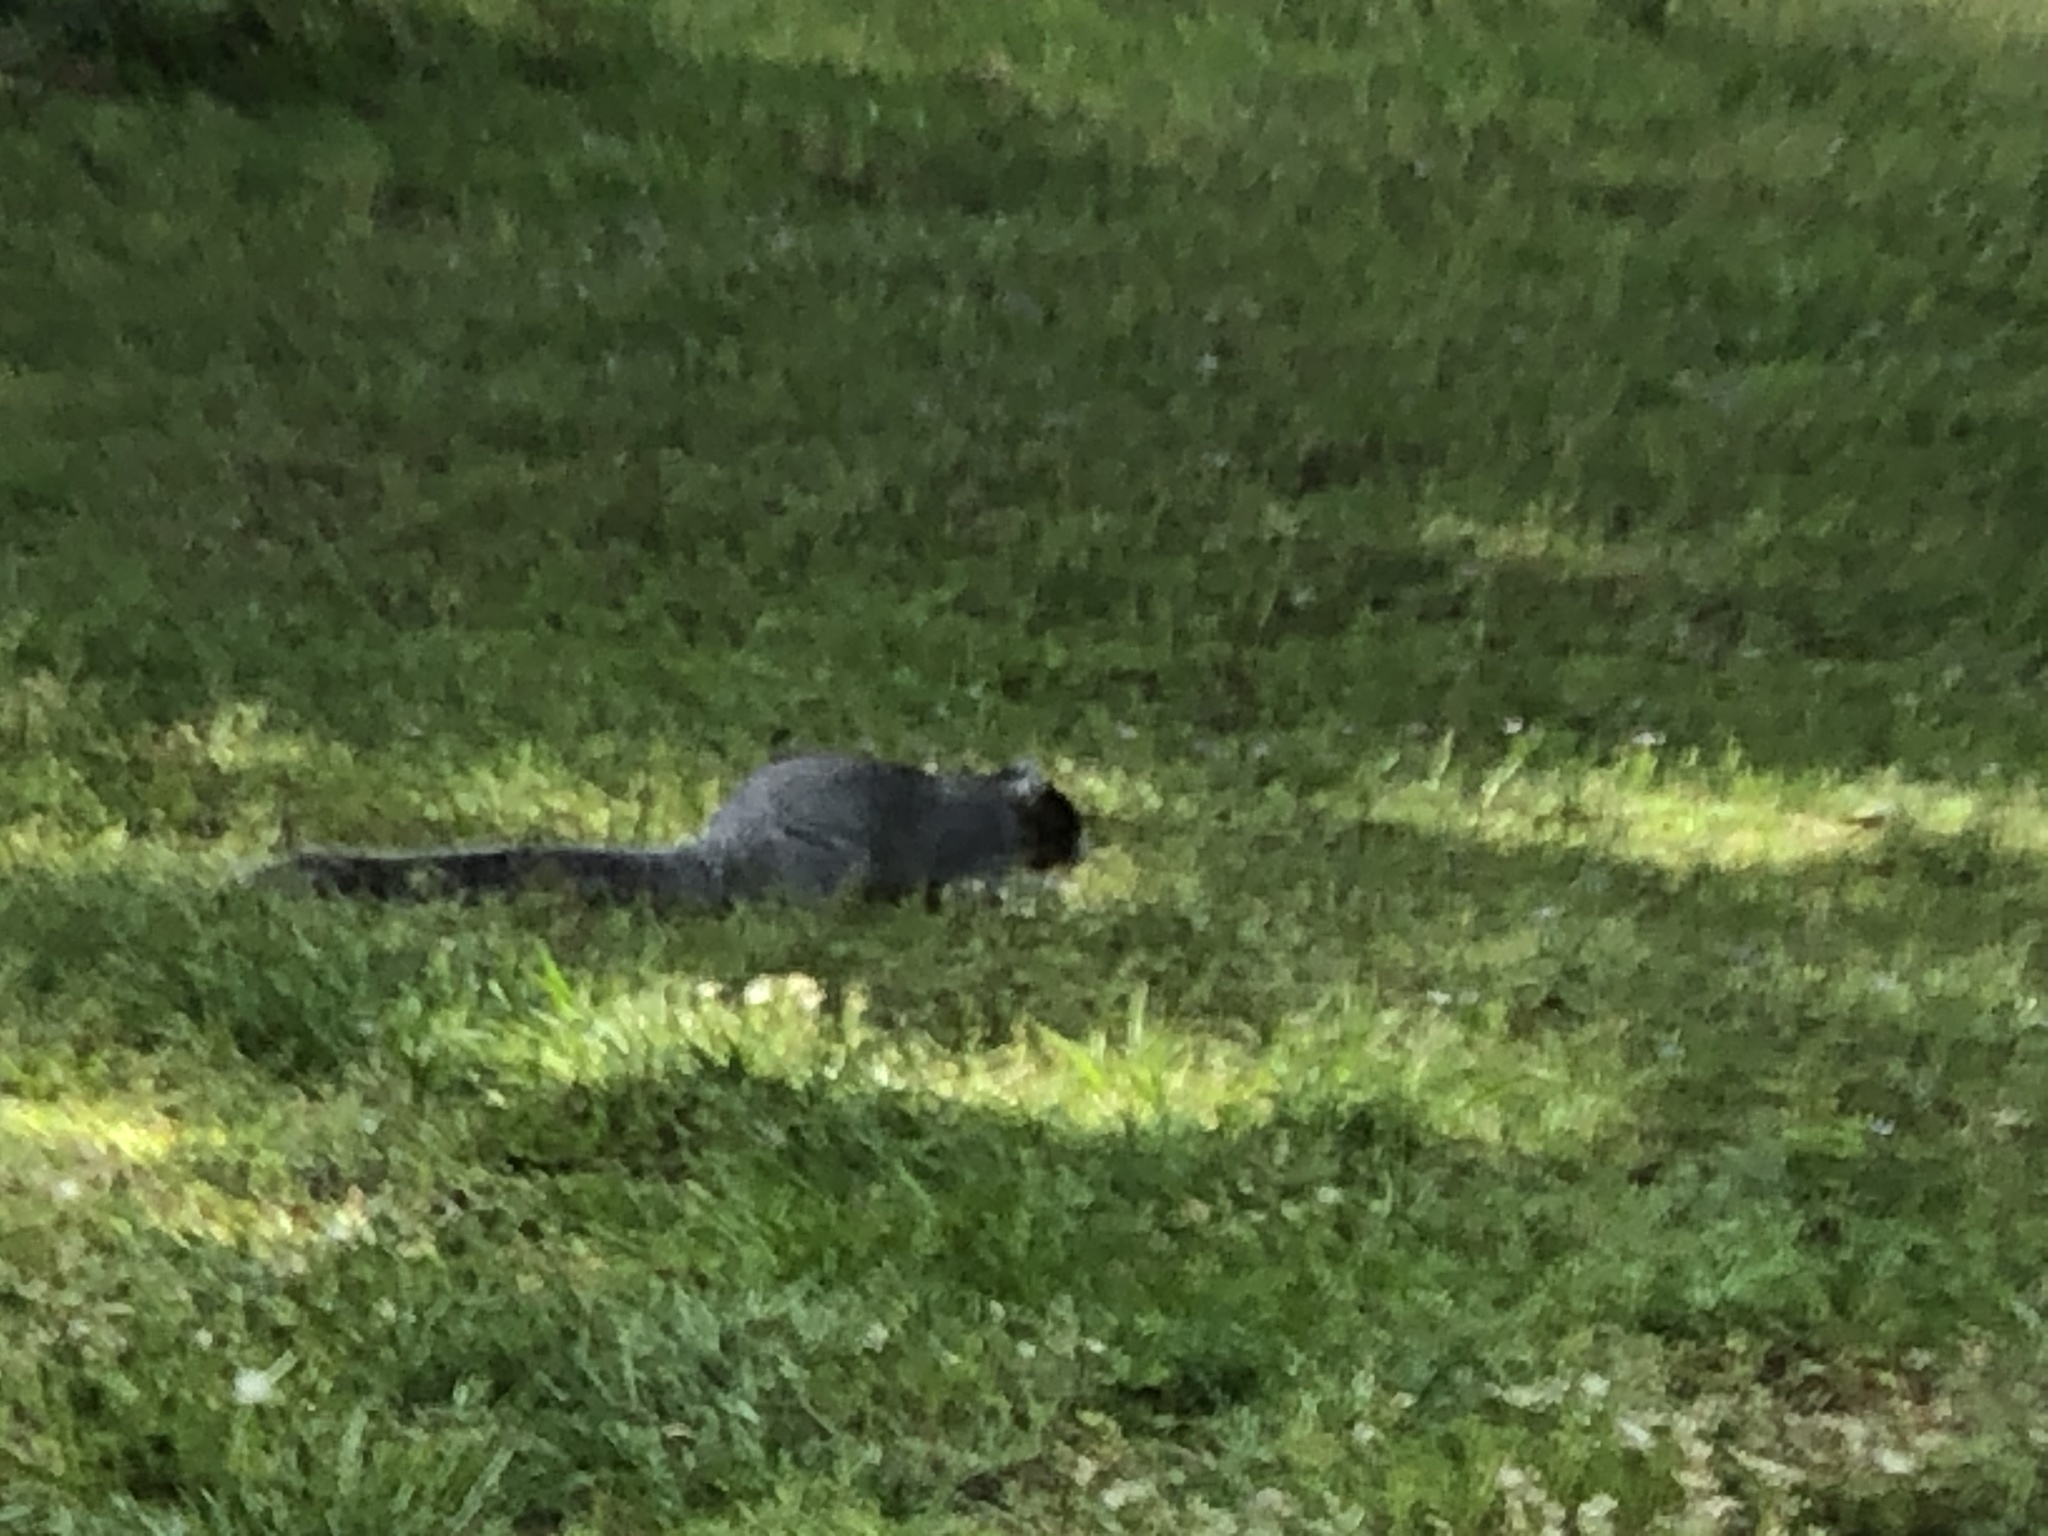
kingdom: Animalia
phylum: Chordata
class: Mammalia
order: Rodentia
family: Sciuridae
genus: Sciurus
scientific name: Sciurus niger
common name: Fox squirrel
